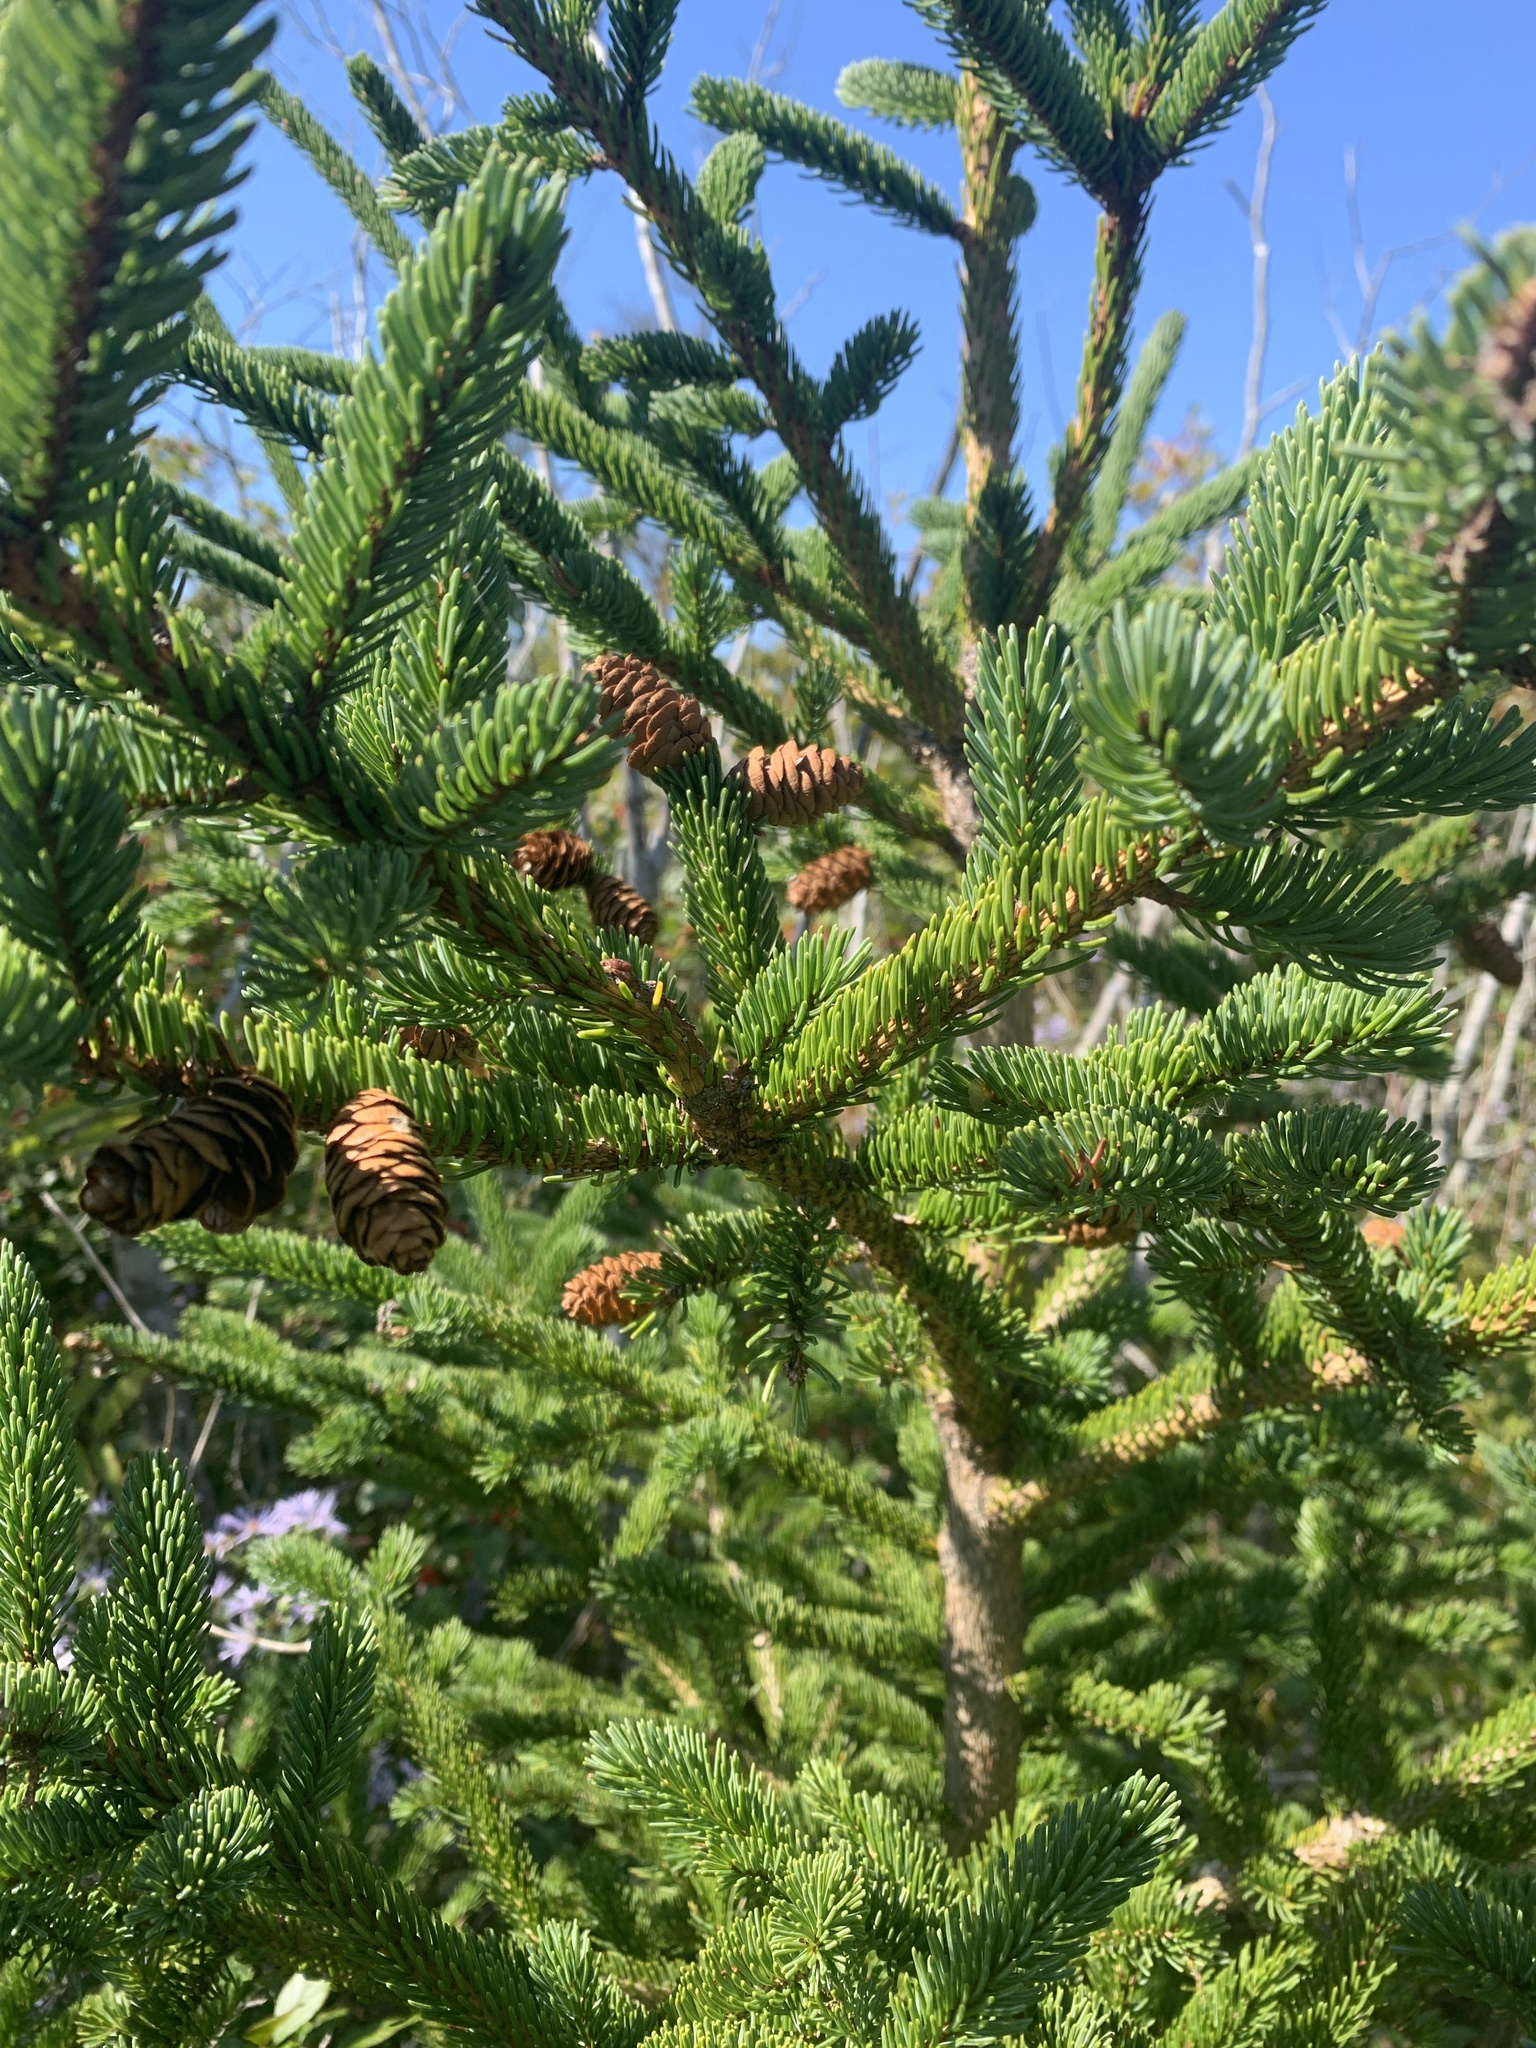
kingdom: Plantae
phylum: Tracheophyta
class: Pinopsida
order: Pinales
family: Pinaceae
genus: Picea
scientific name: Picea glauca
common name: White spruce
